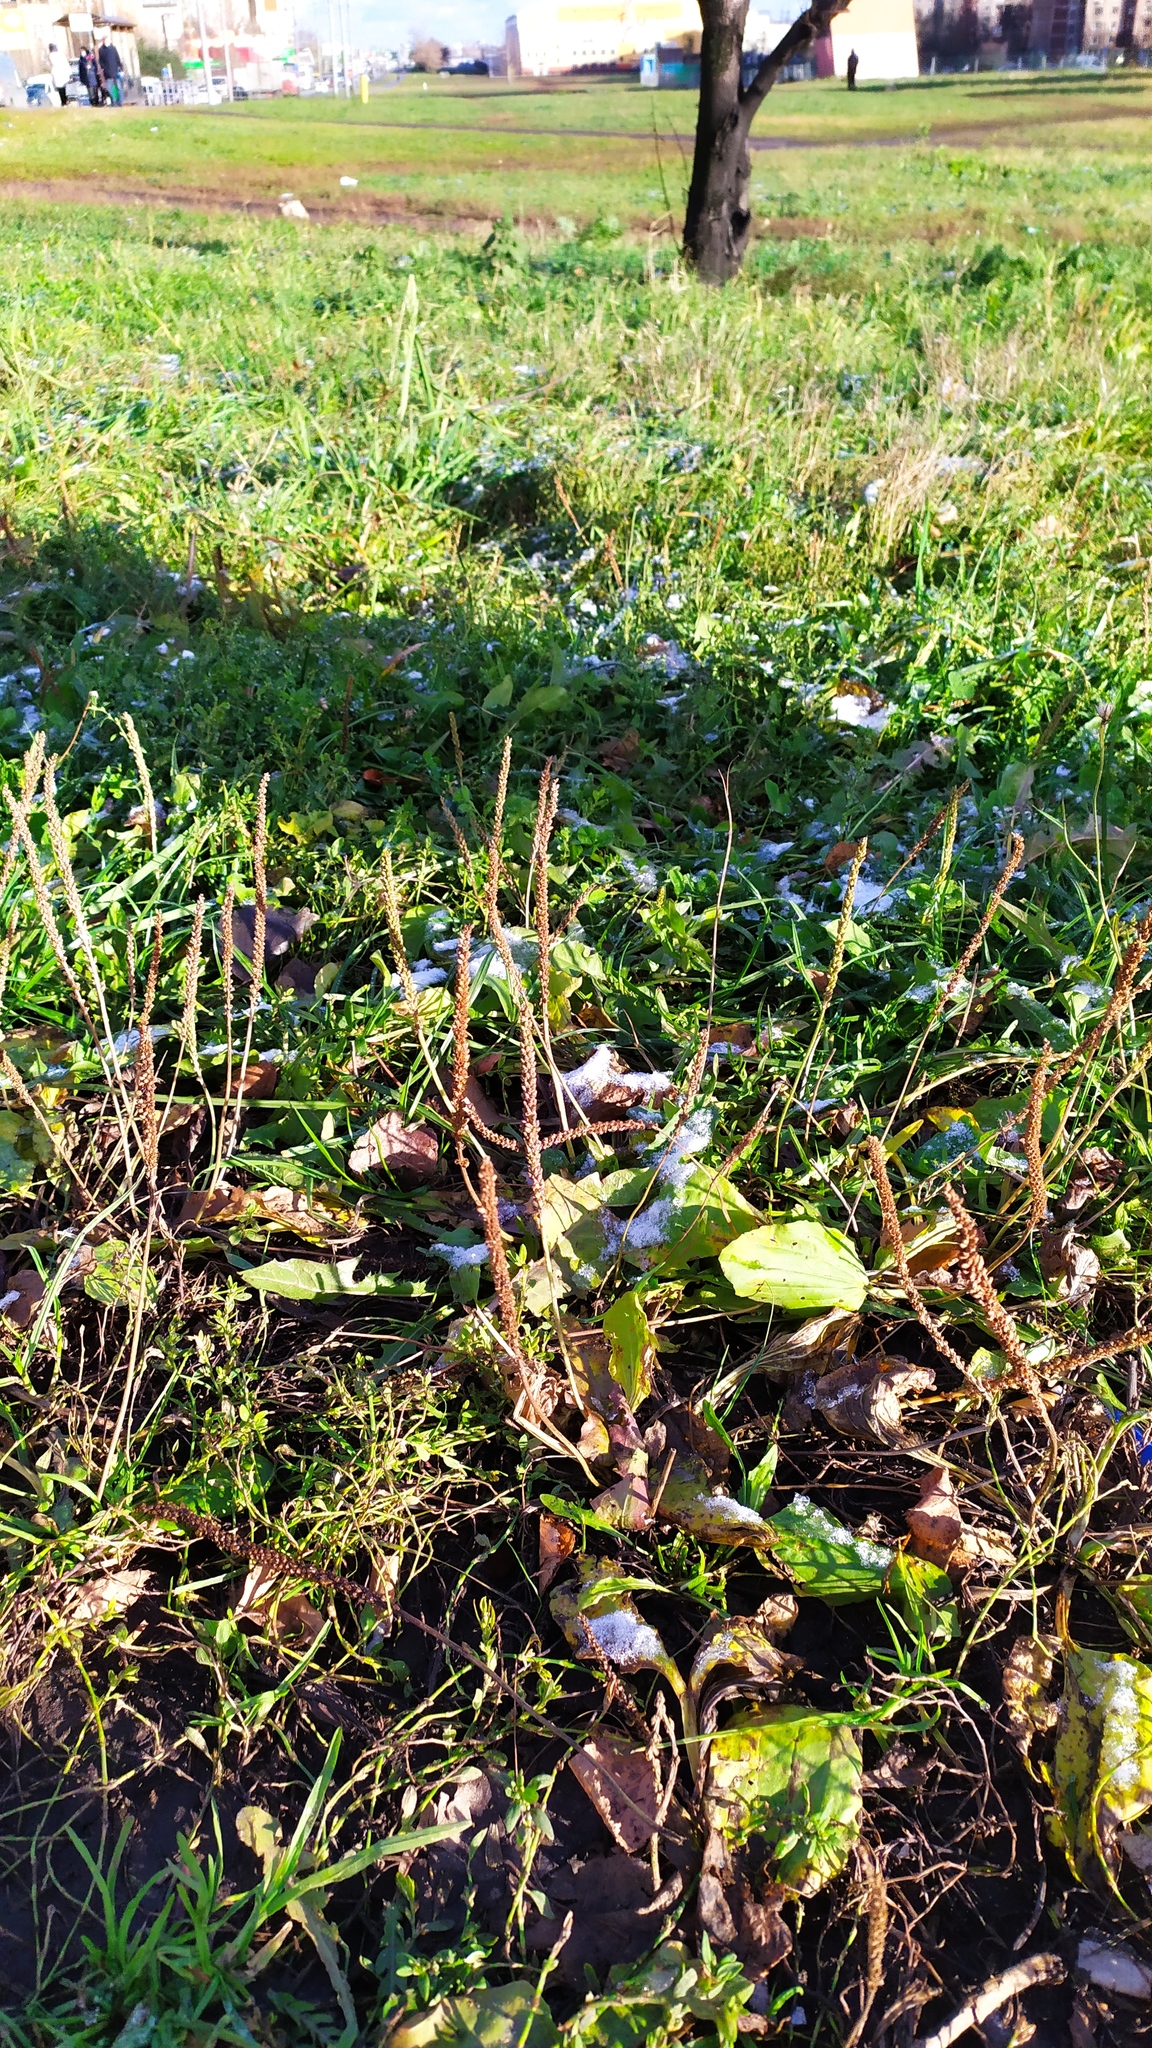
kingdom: Plantae
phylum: Tracheophyta
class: Liliopsida
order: Poales
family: Poaceae
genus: Dactylis
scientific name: Dactylis glomerata
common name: Orchardgrass
